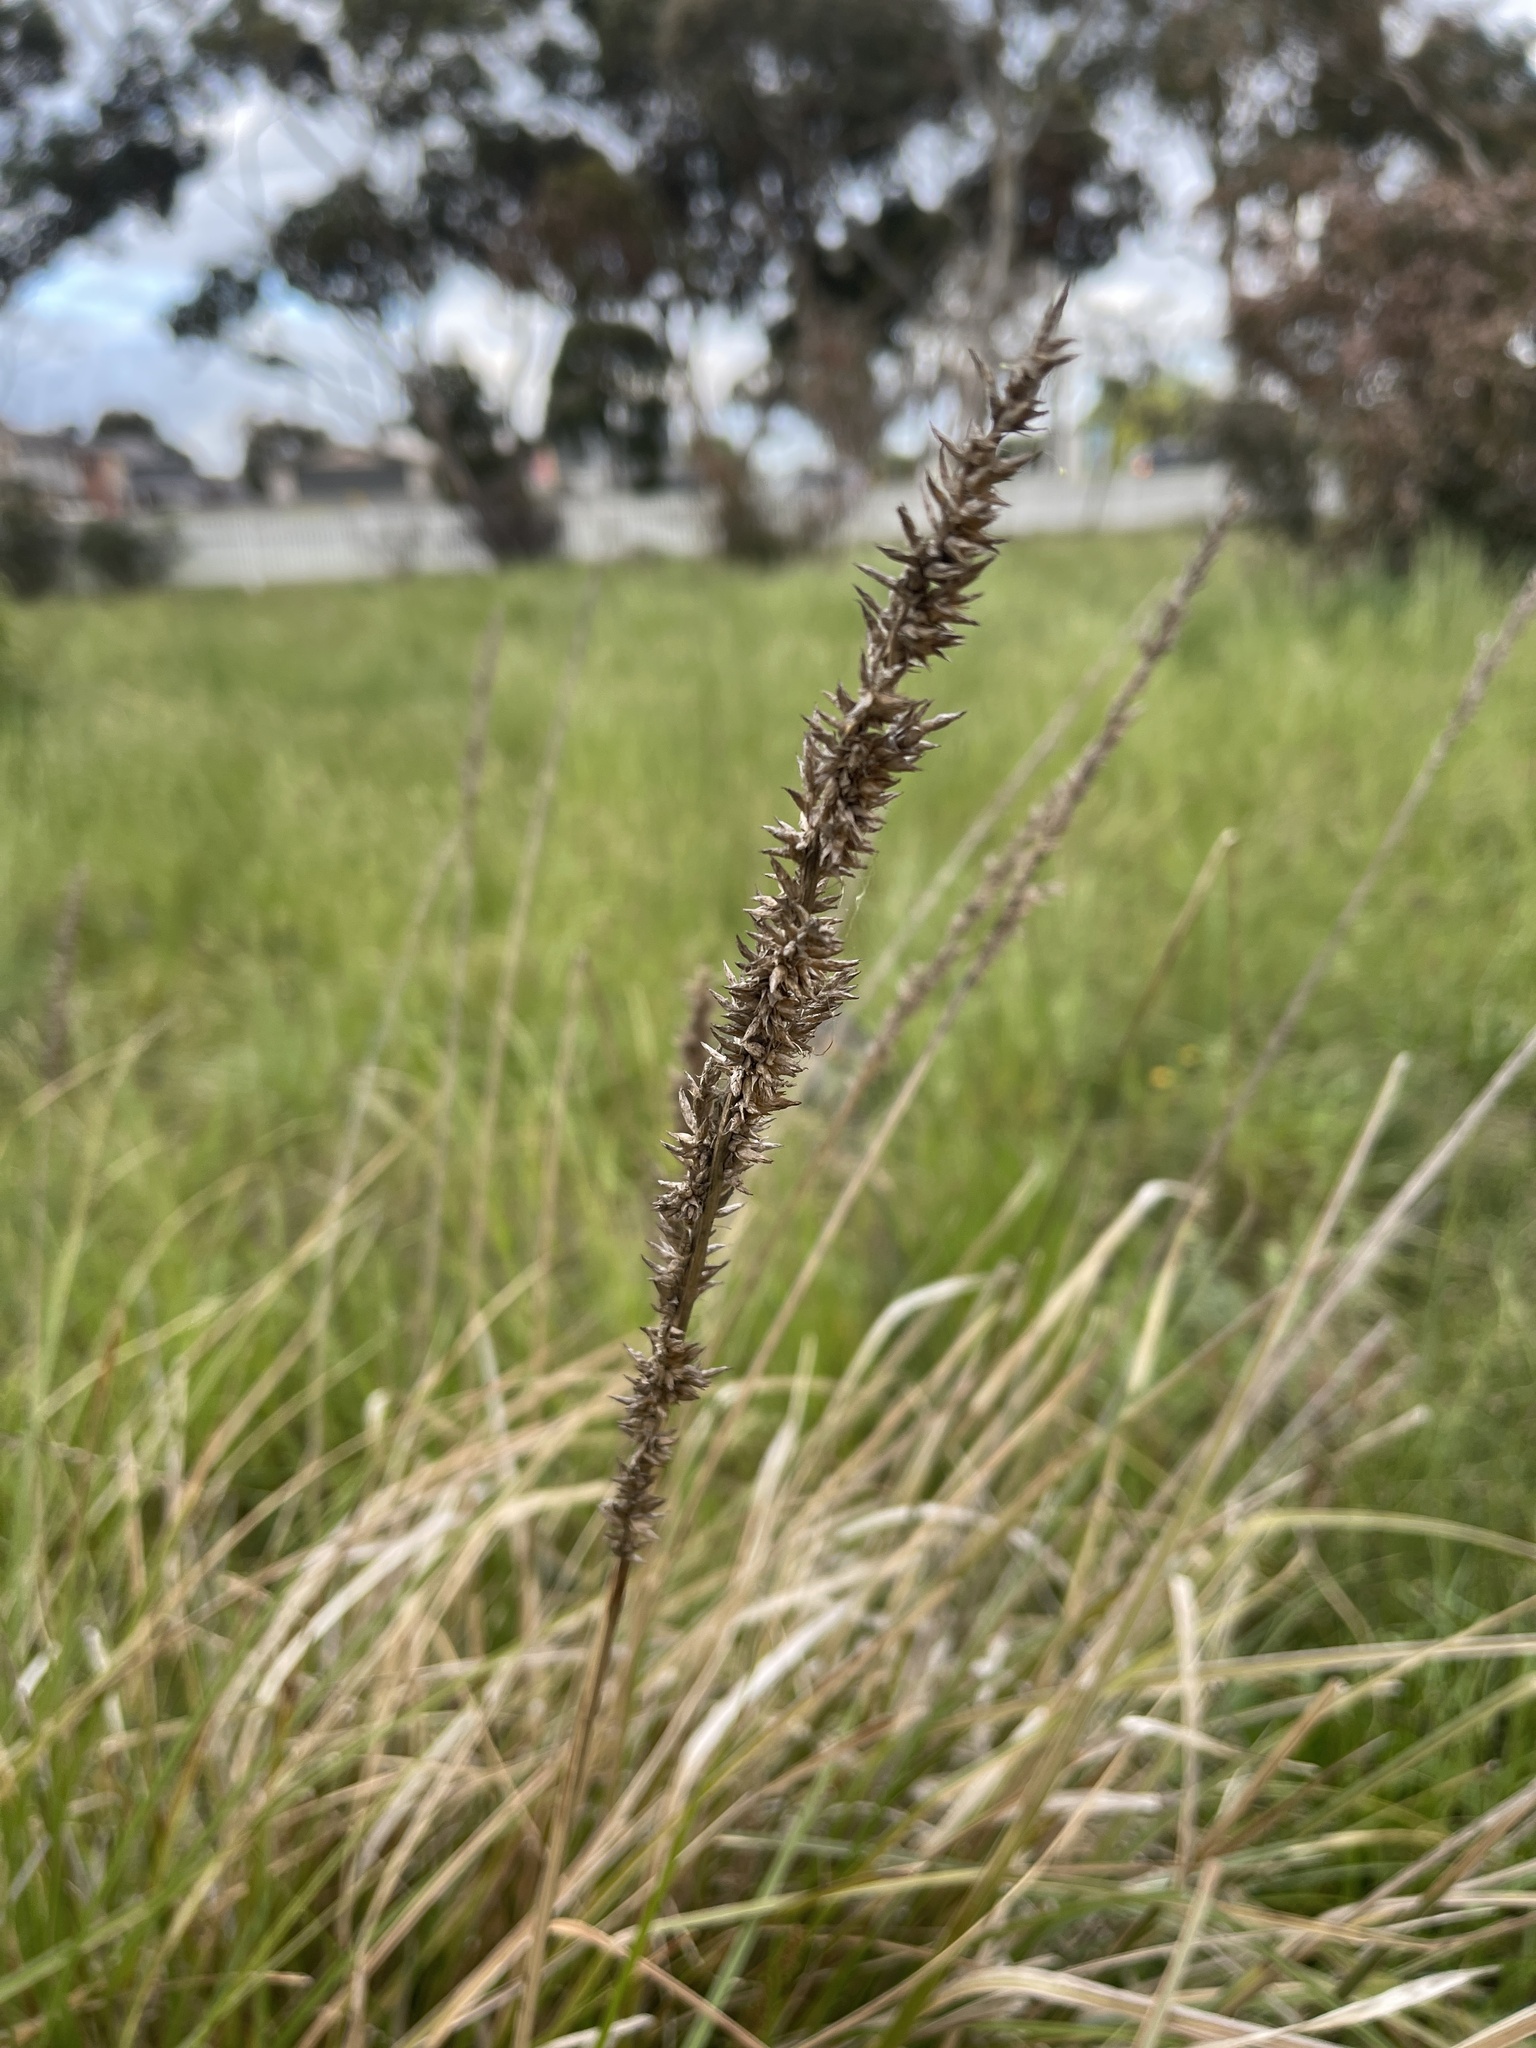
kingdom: Plantae
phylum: Tracheophyta
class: Liliopsida
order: Poales
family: Cyperaceae
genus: Carex
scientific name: Carex appressa
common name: Tussock sedge
